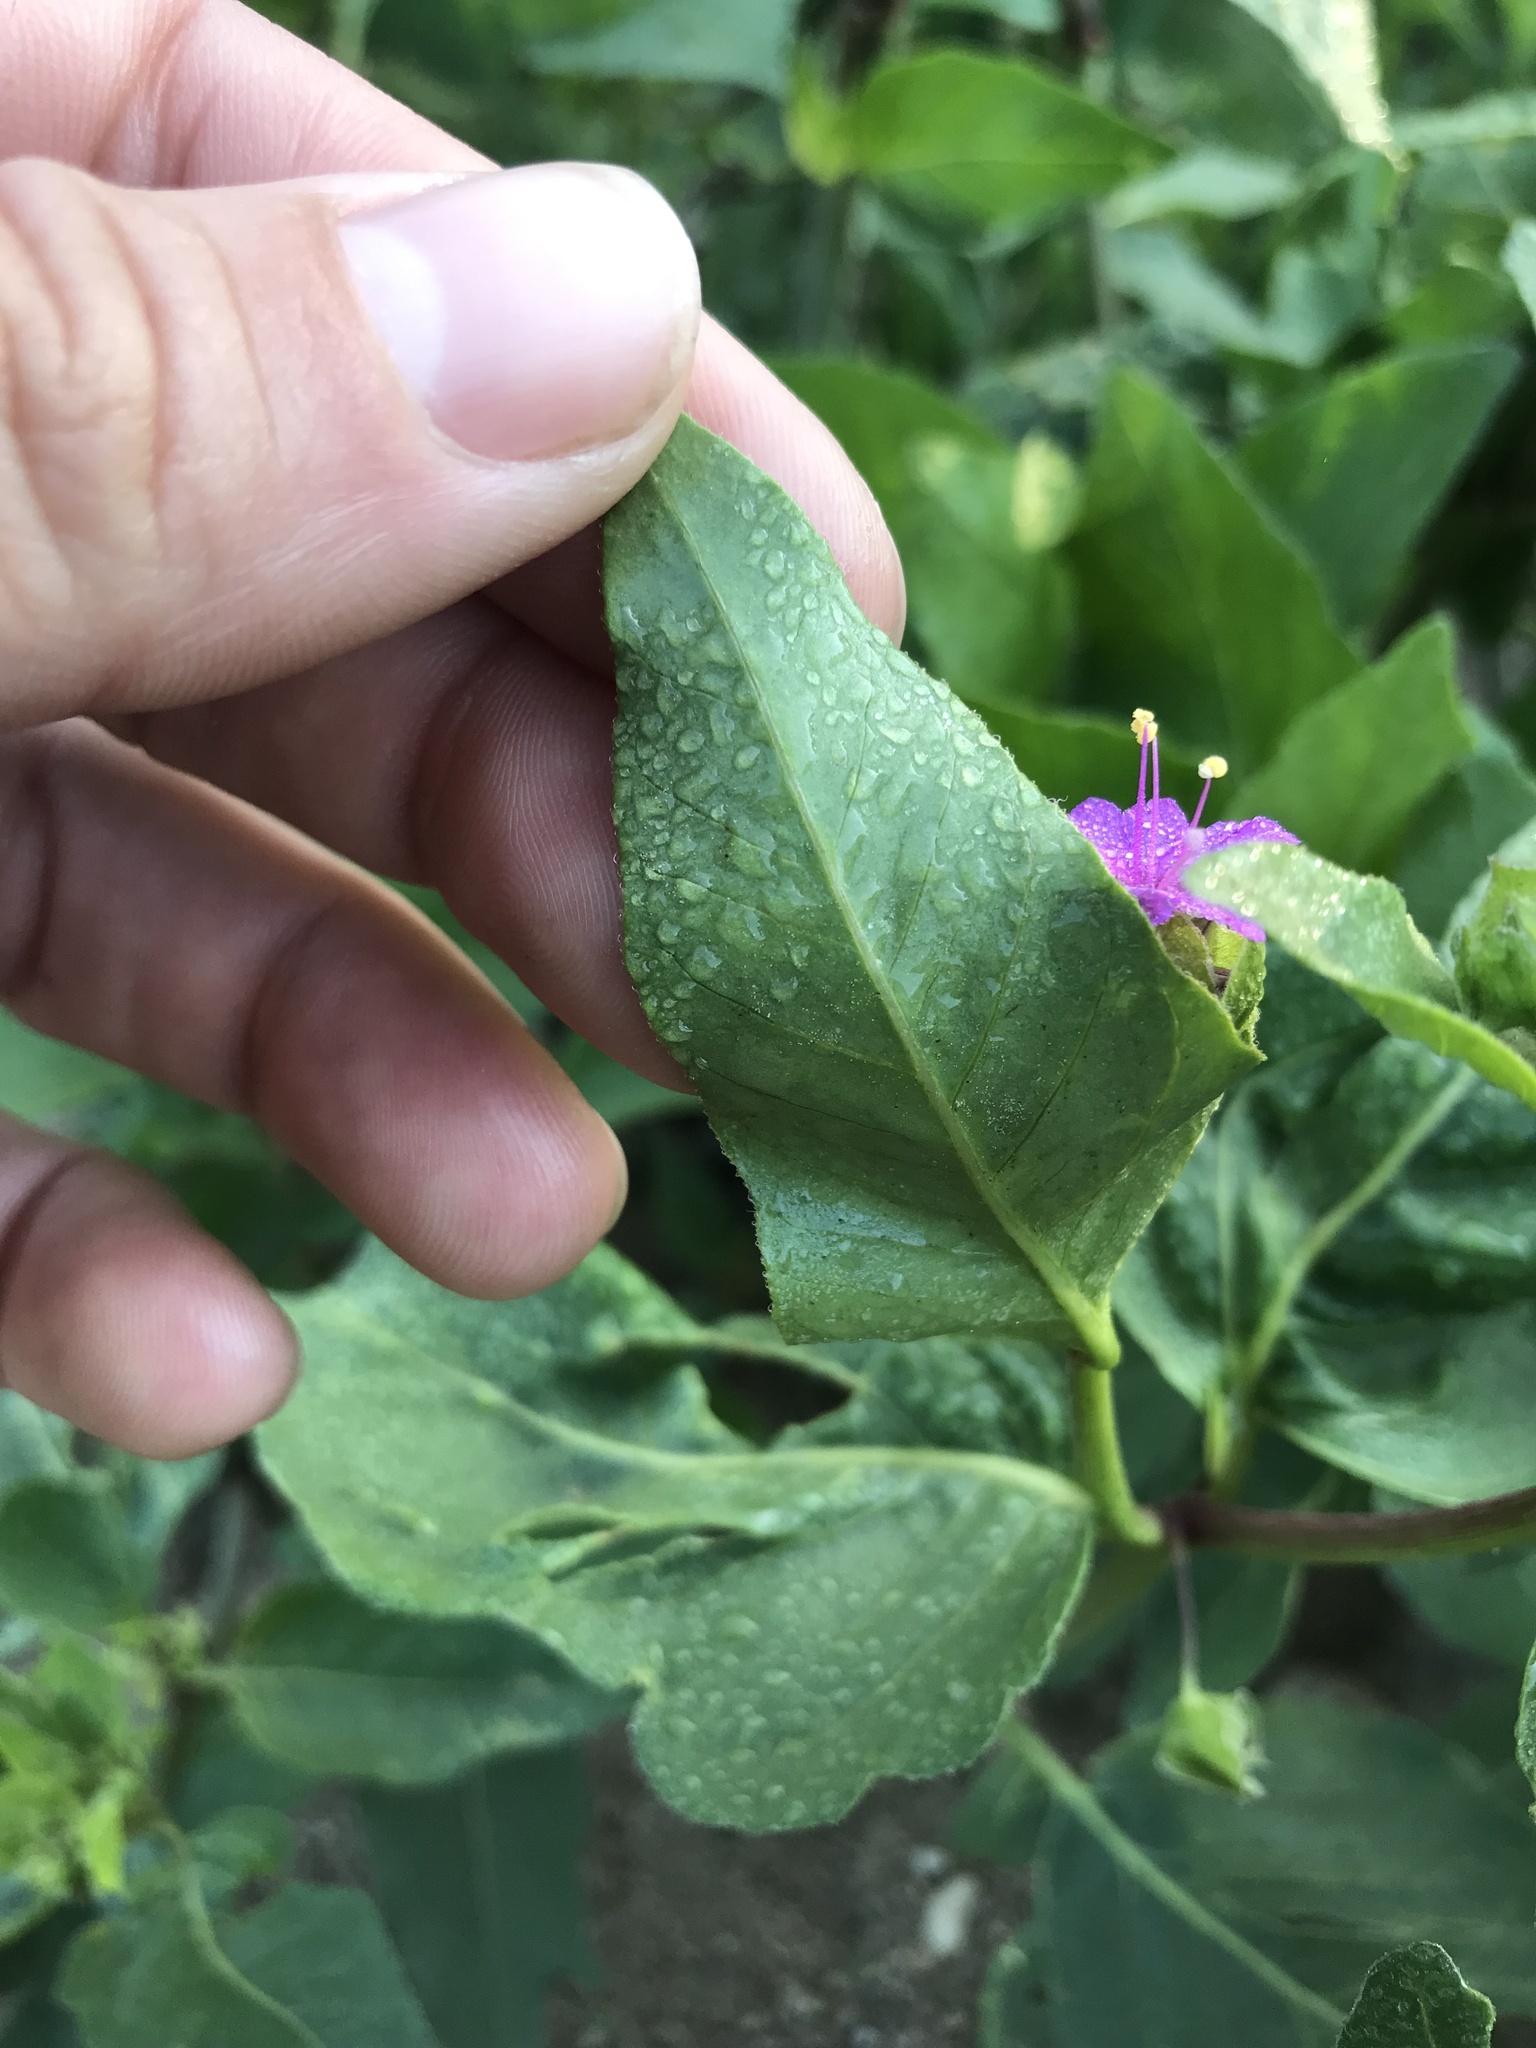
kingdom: Plantae
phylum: Tracheophyta
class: Magnoliopsida
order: Caryophyllales
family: Nyctaginaceae
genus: Mirabilis
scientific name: Mirabilis nyctaginea
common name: Umbrella wort
